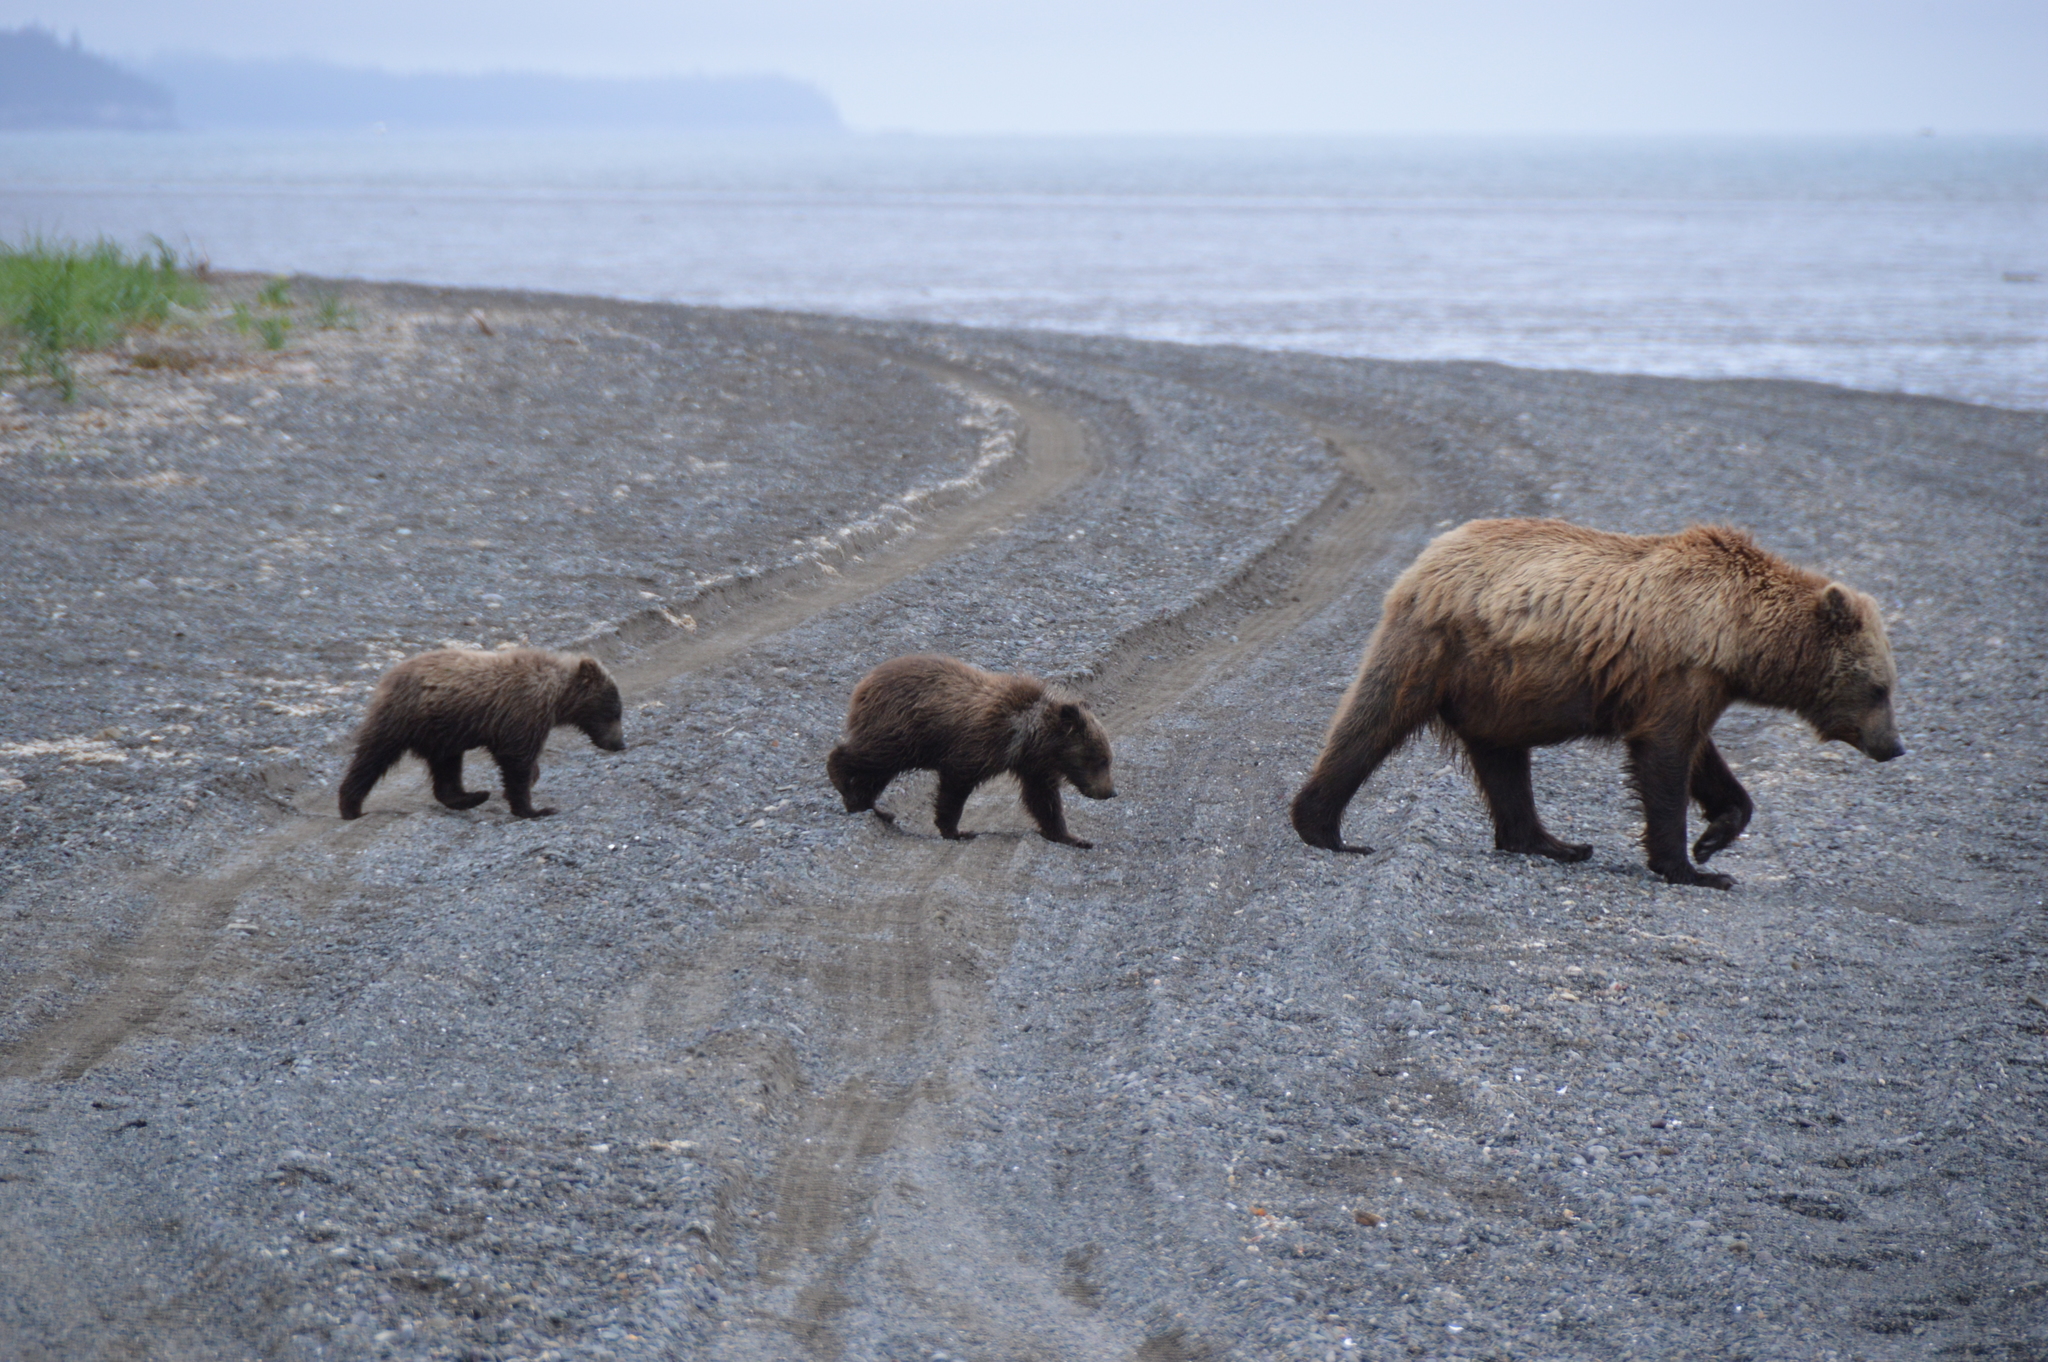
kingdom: Animalia
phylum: Chordata
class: Mammalia
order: Carnivora
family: Ursidae
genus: Ursus
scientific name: Ursus arctos
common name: Brown bear
